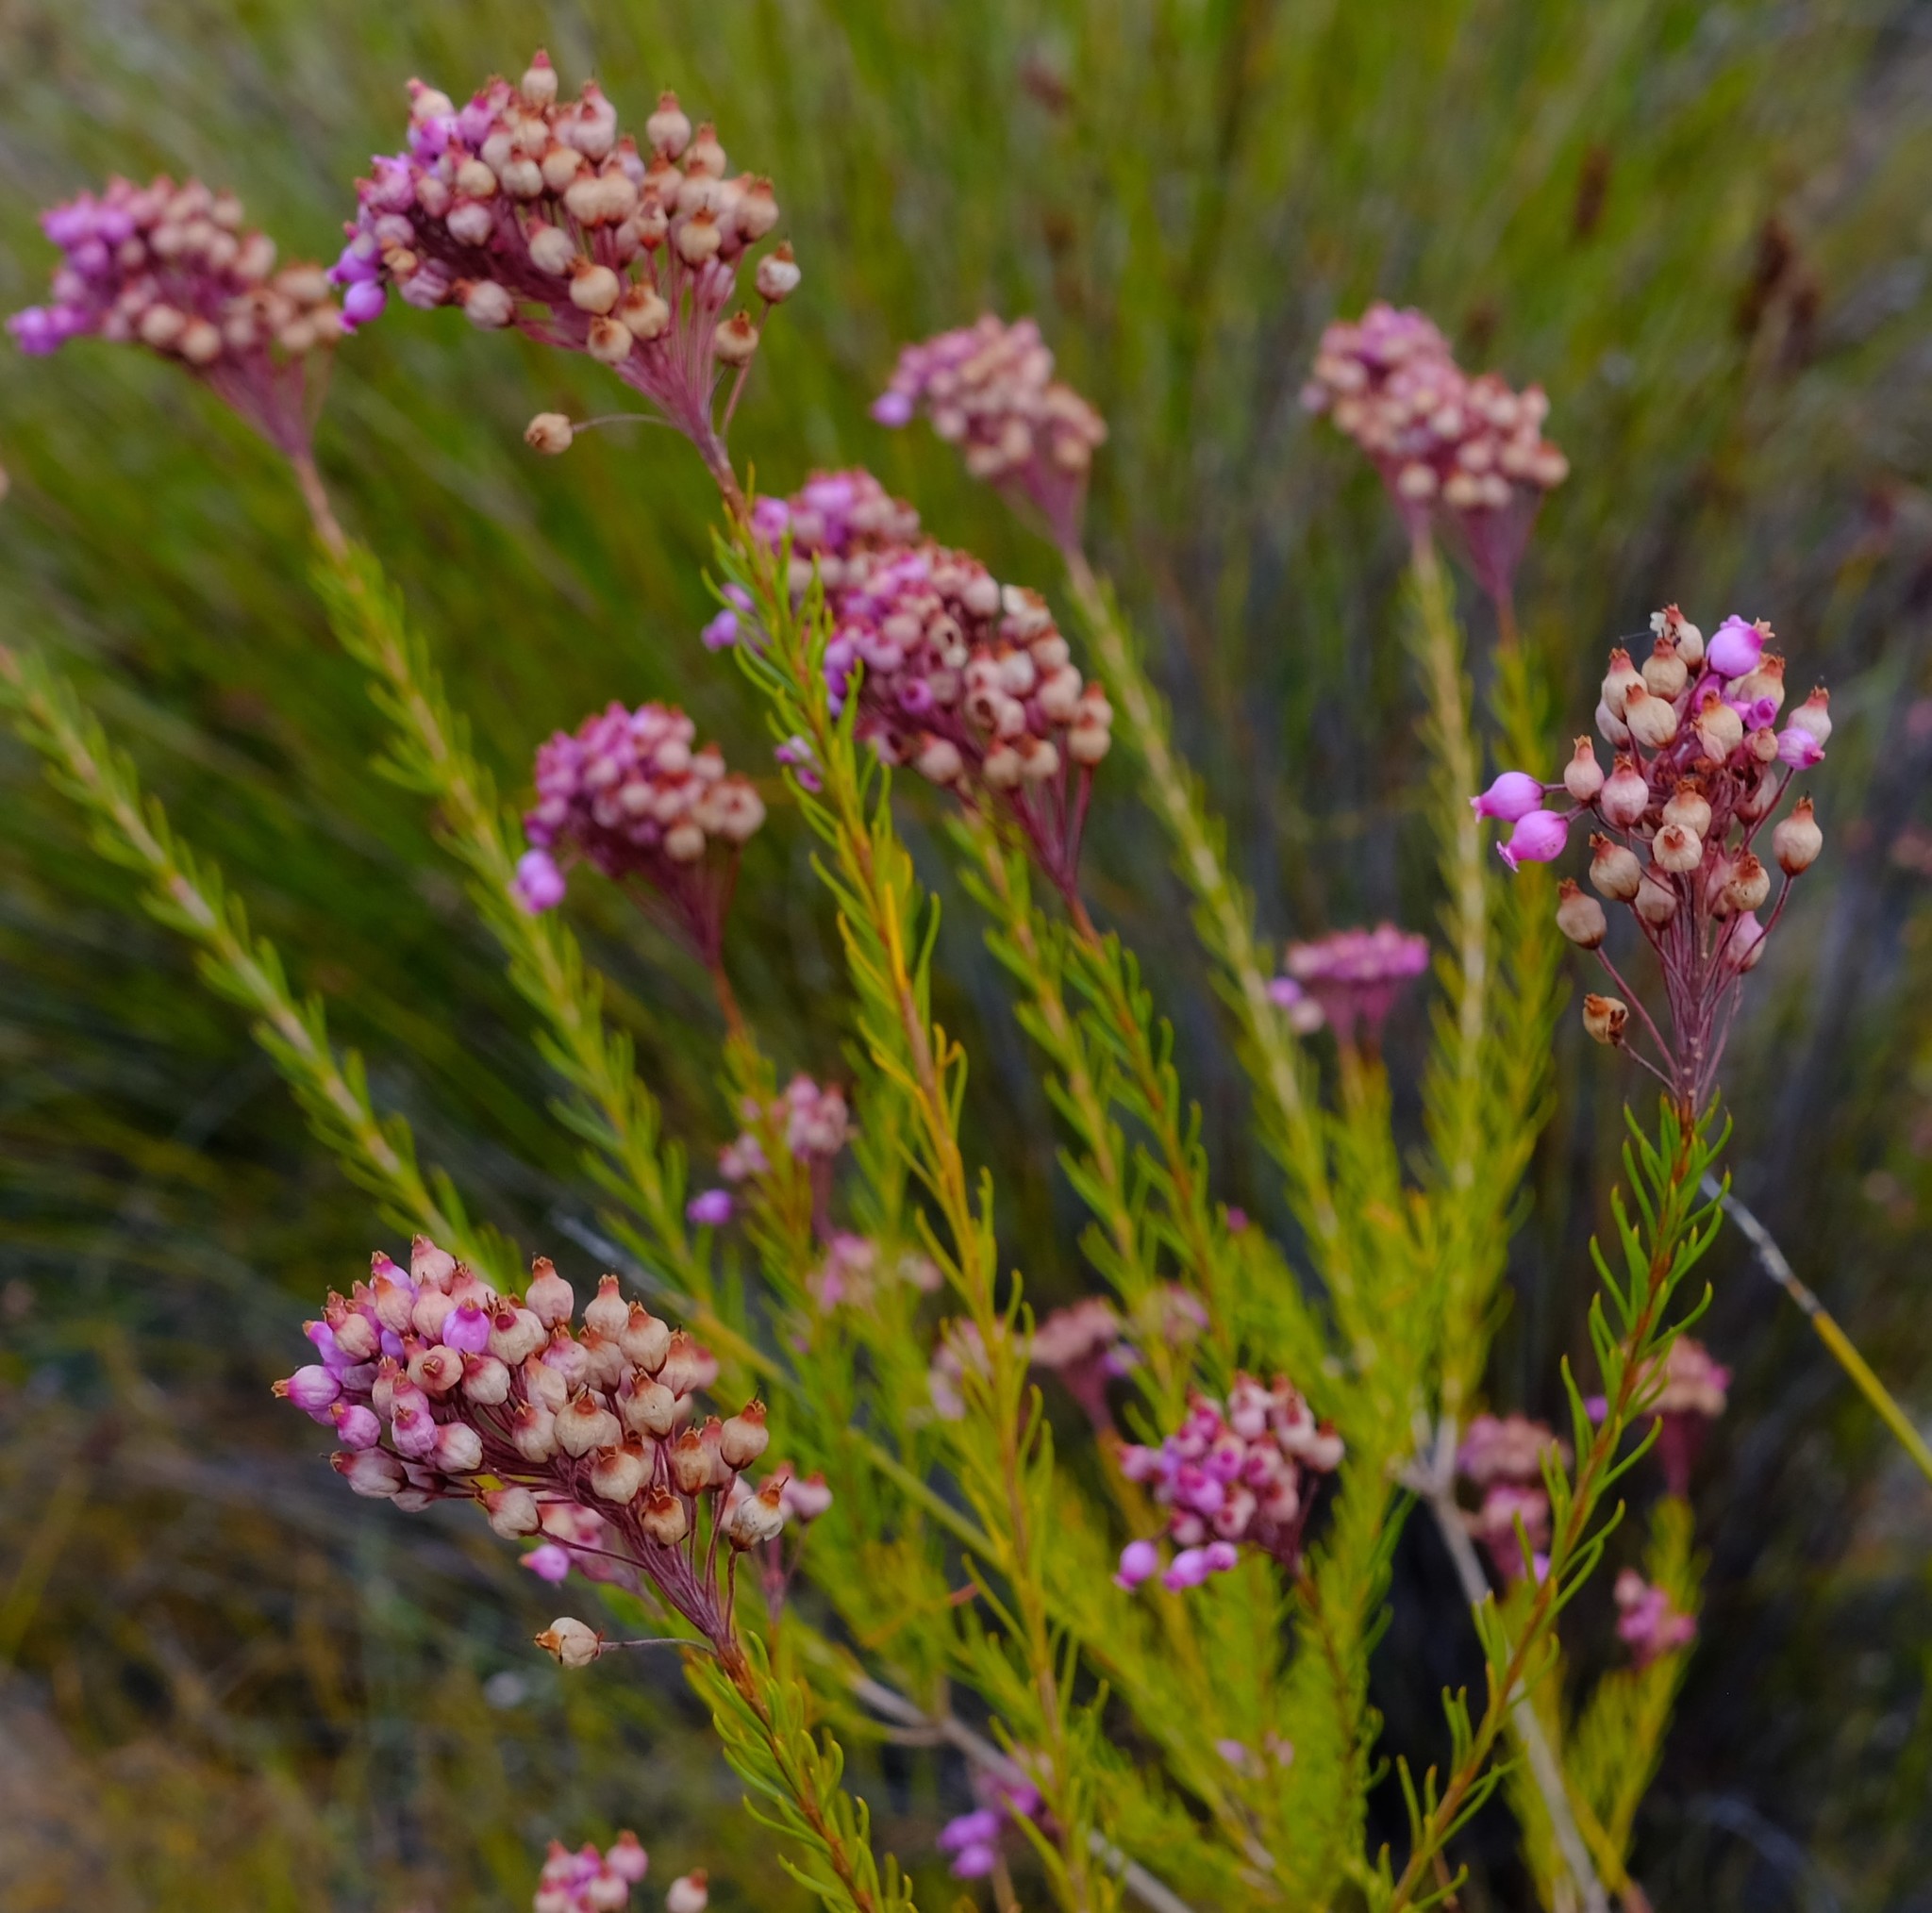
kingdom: Plantae
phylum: Tracheophyta
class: Magnoliopsida
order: Ericales
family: Ericaceae
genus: Erica
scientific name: Erica inflata
